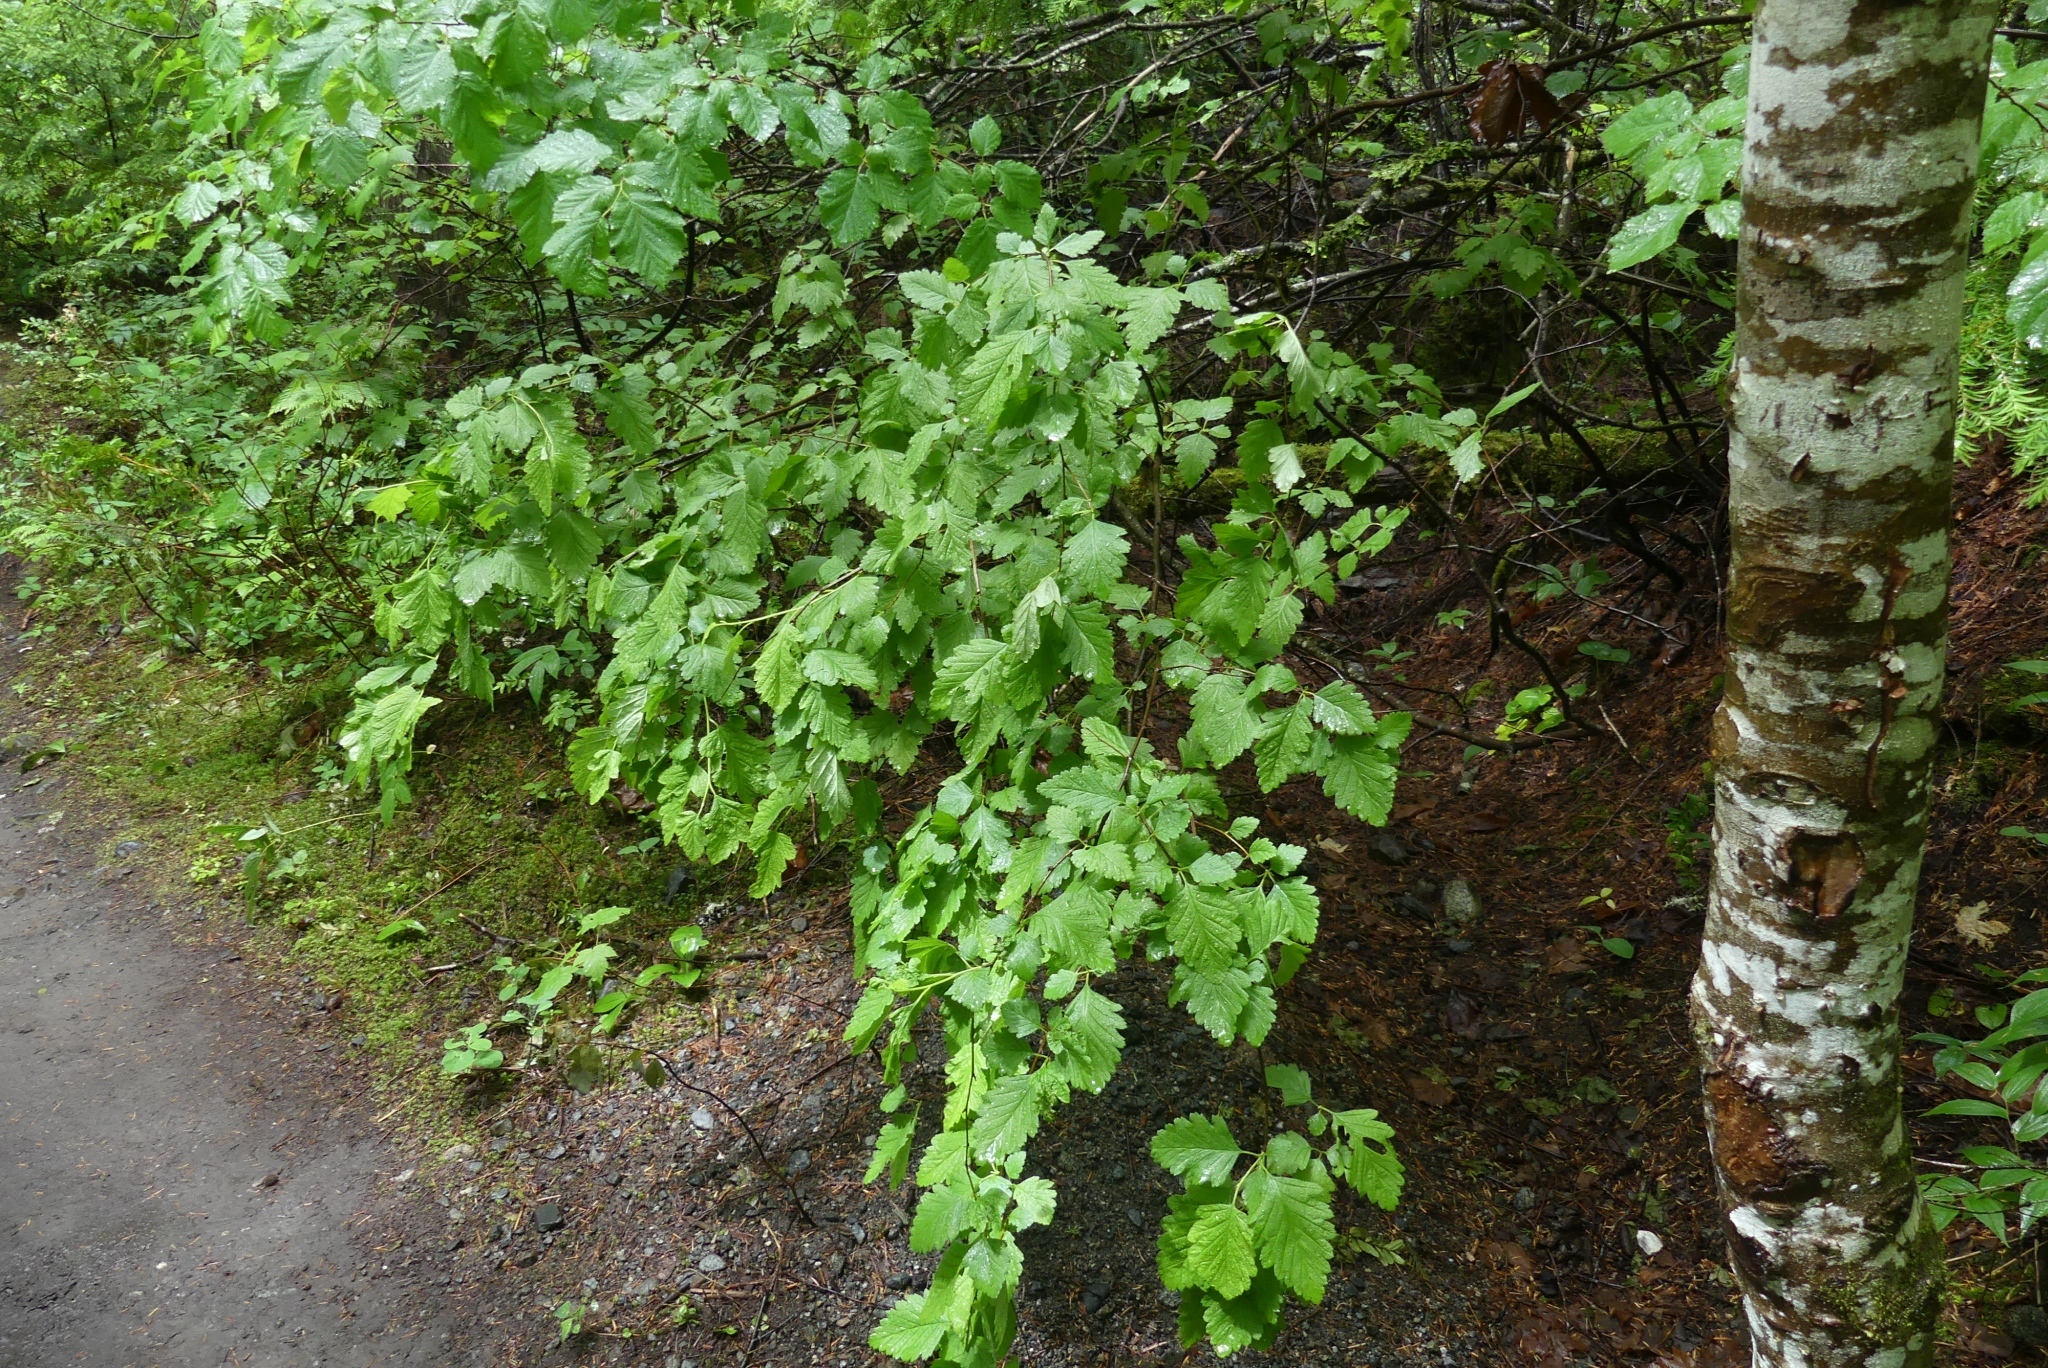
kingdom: Plantae
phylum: Tracheophyta
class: Magnoliopsida
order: Rosales
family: Rosaceae
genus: Holodiscus
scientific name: Holodiscus discolor
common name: Oceanspray
